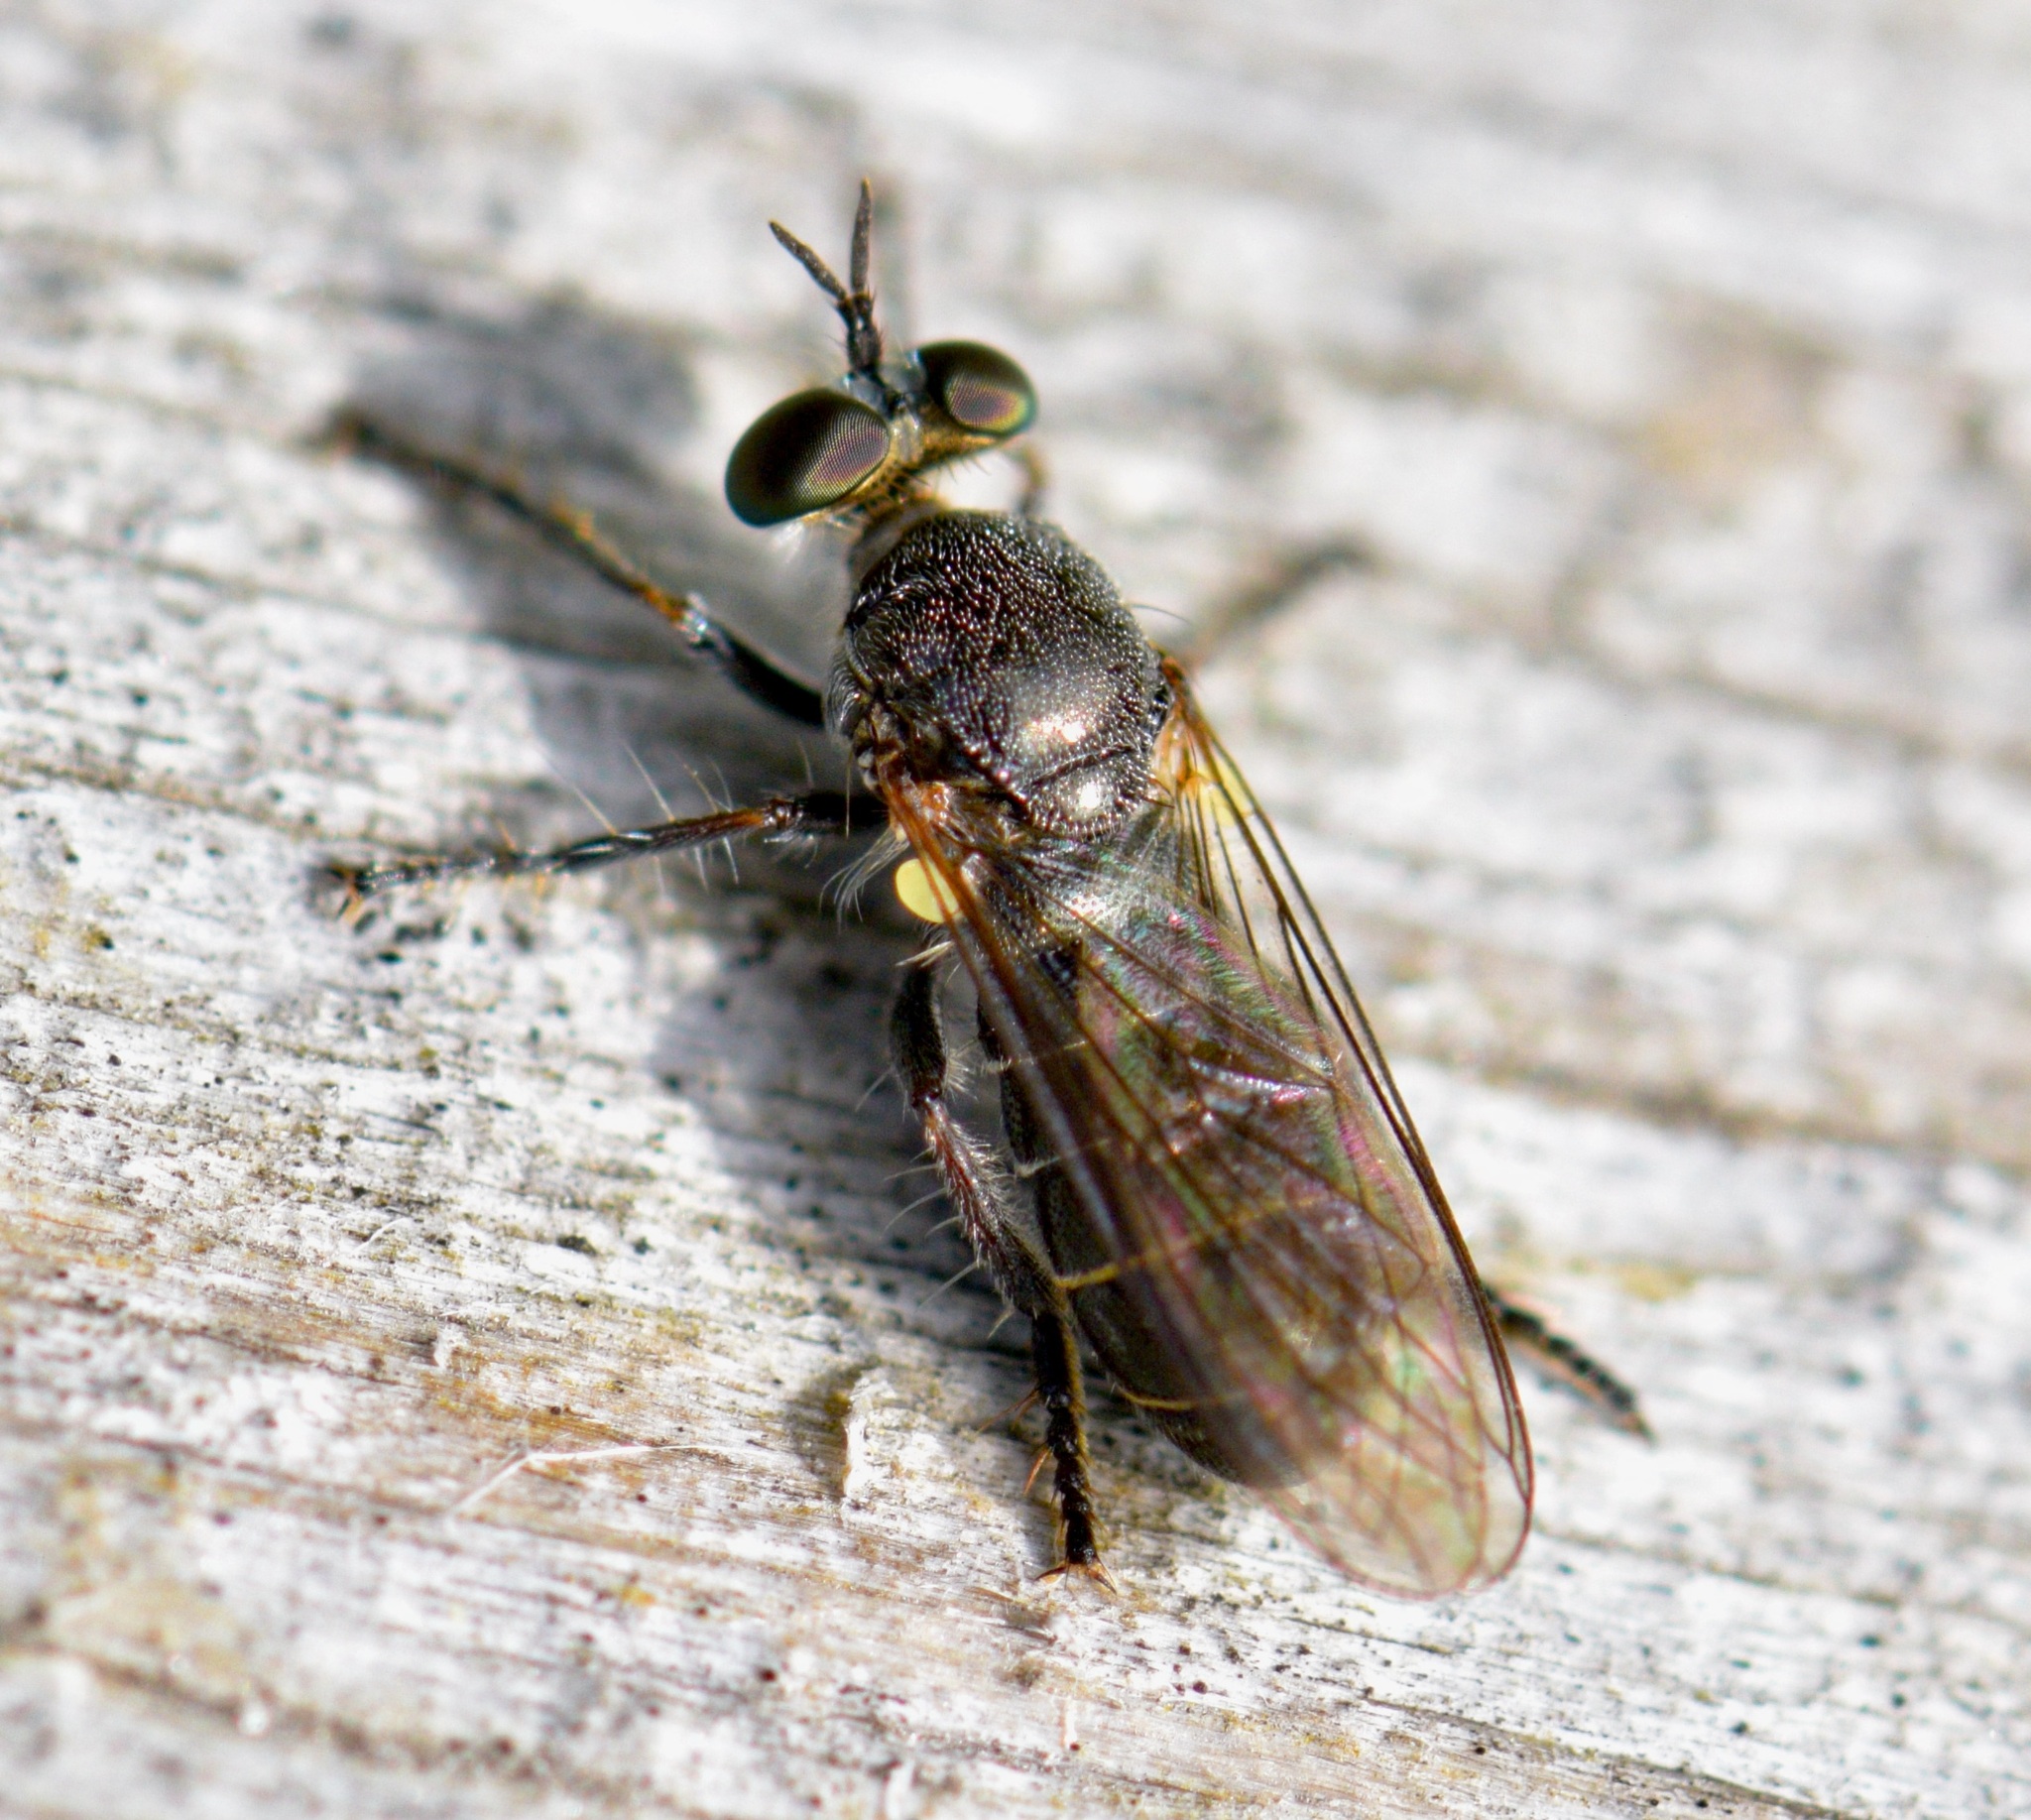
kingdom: Animalia
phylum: Arthropoda
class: Insecta
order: Diptera
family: Asilidae
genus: Atomosia
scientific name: Atomosia puella
